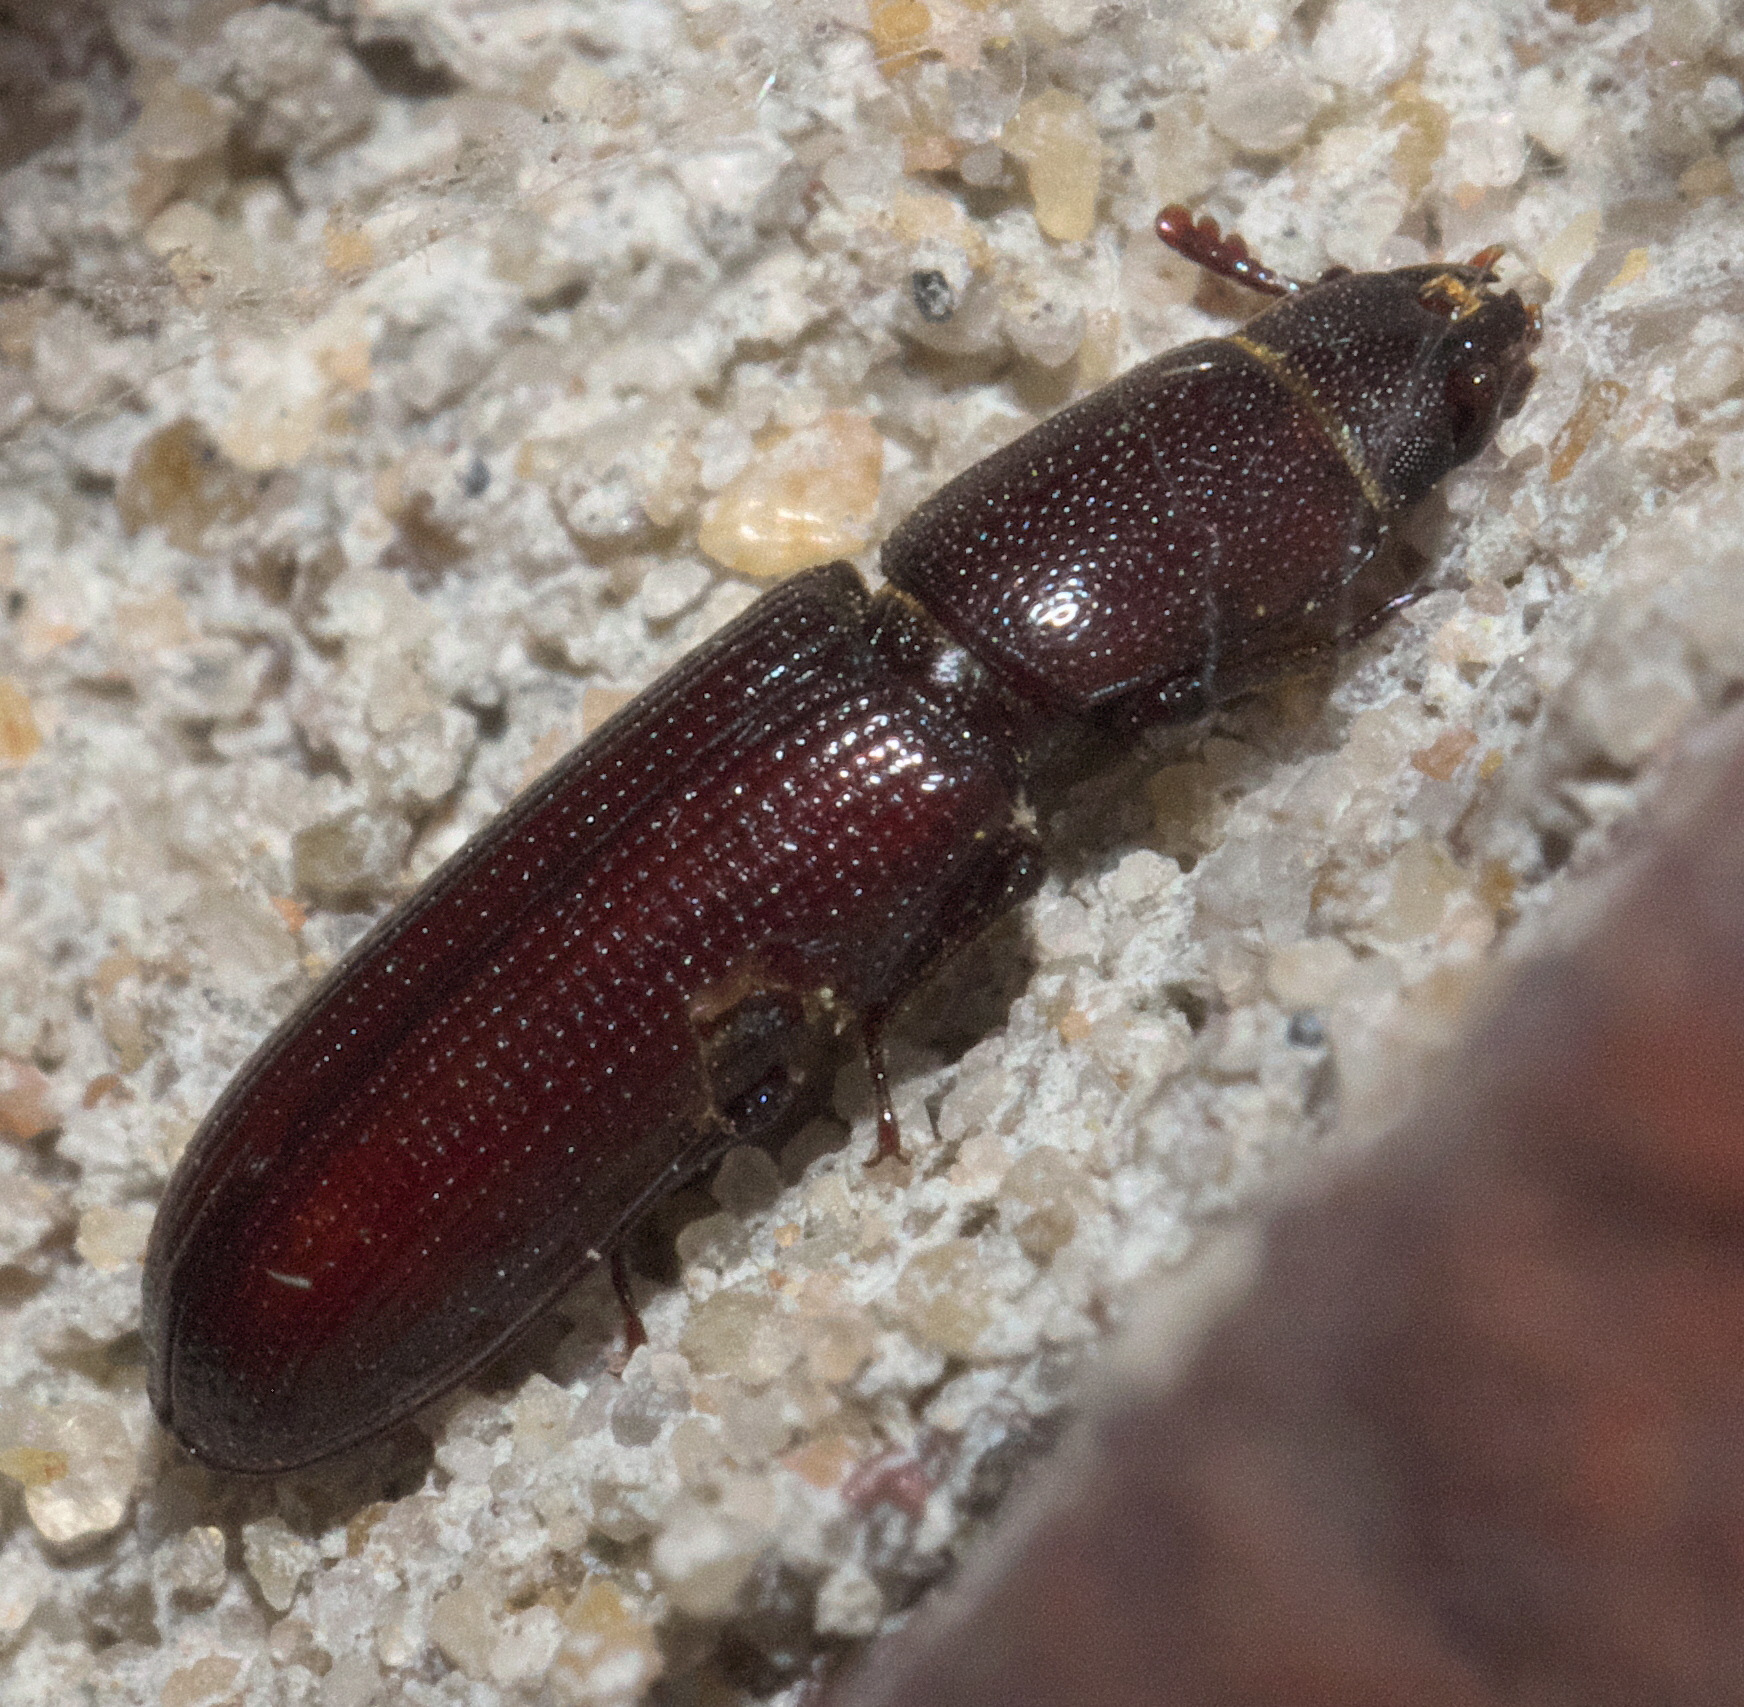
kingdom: Animalia
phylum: Arthropoda
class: Insecta
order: Coleoptera
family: Trogossitidae
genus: Airora
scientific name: Airora cylindrica
